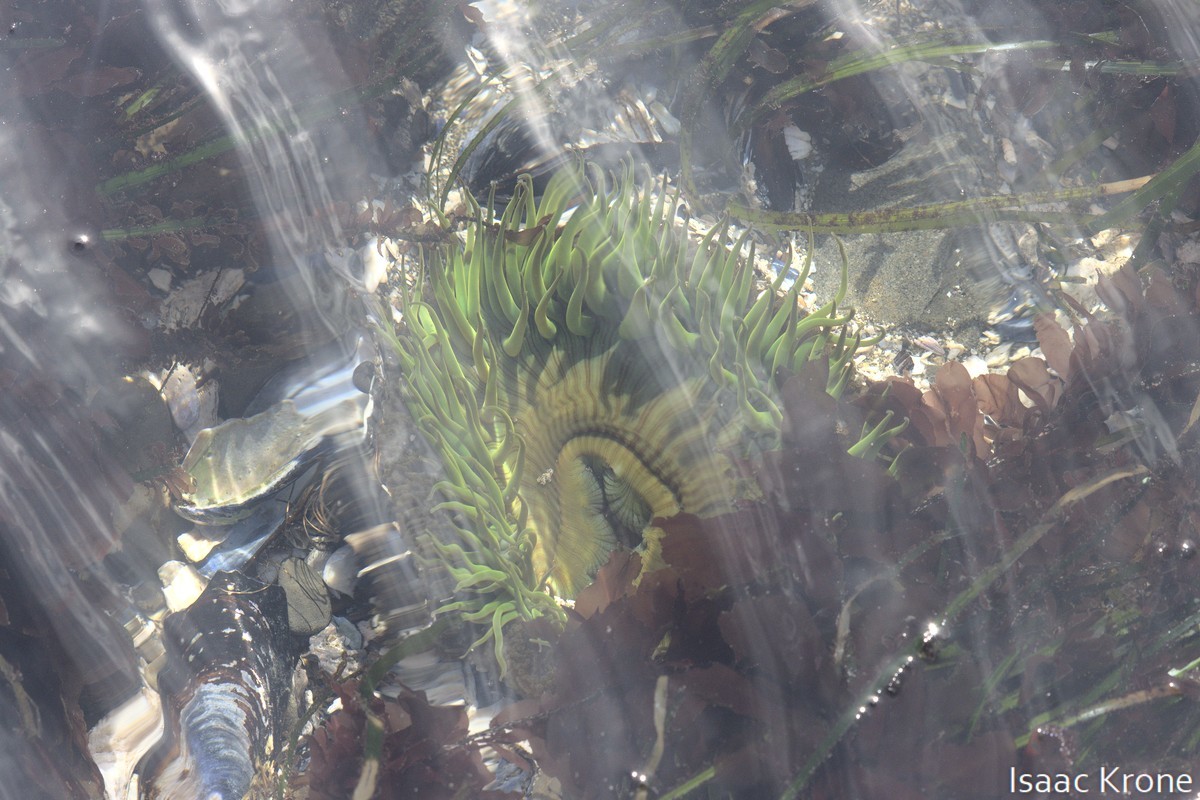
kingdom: Animalia
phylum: Cnidaria
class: Anthozoa
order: Actiniaria
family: Actiniidae
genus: Anthopleura
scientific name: Anthopleura sola
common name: Sun anemone
